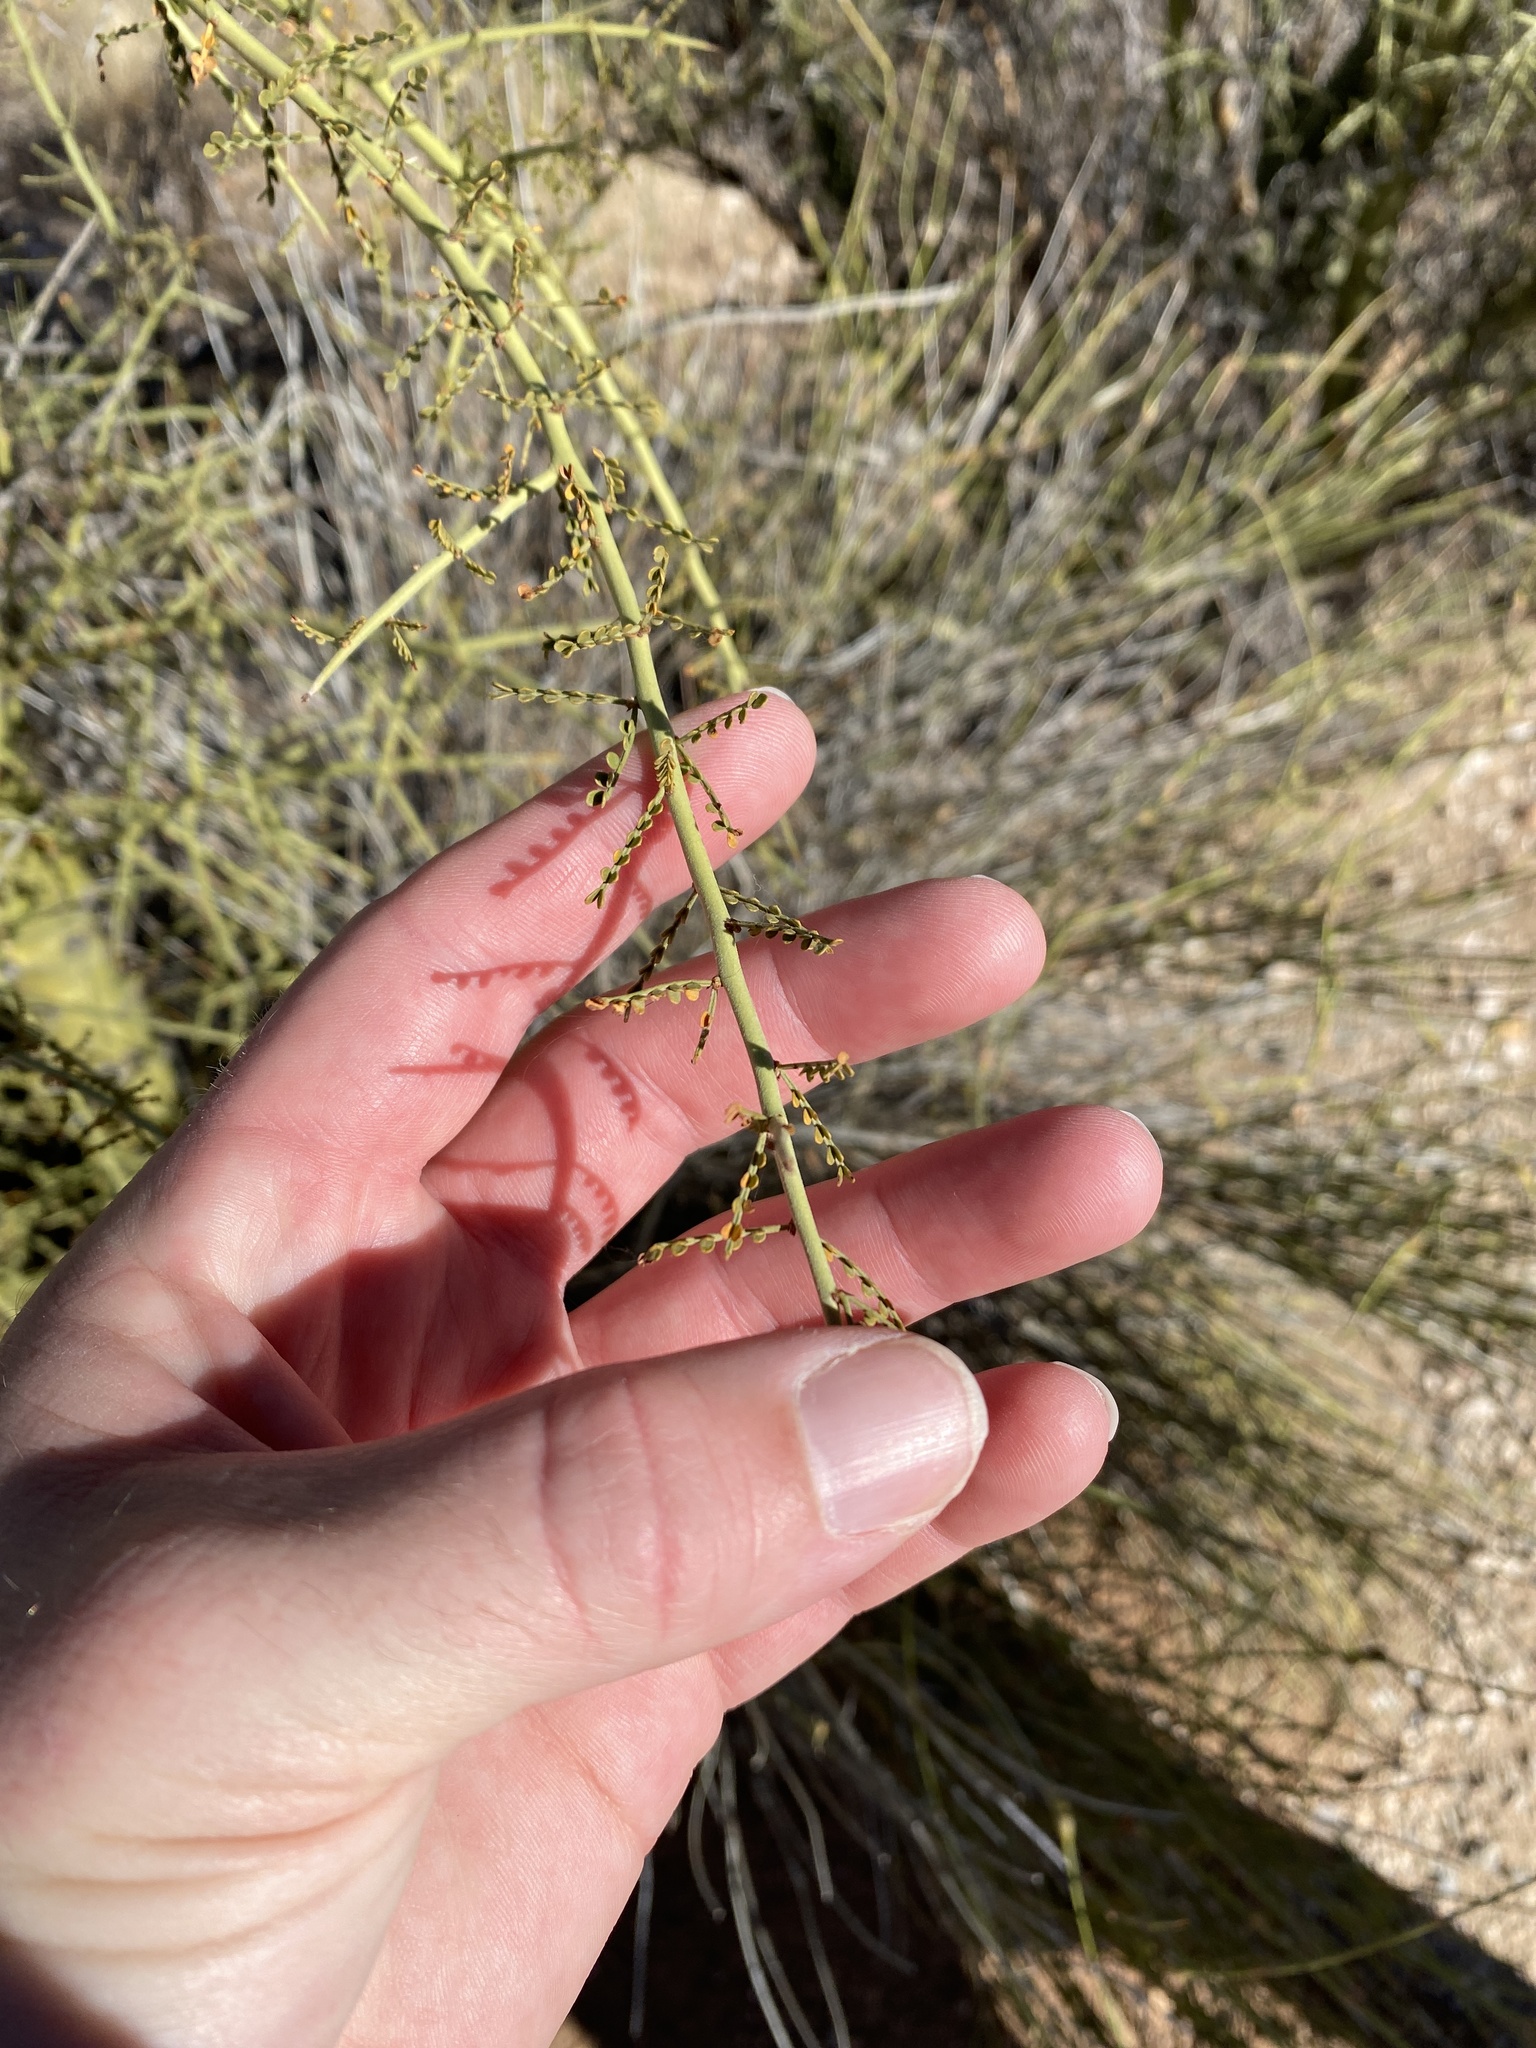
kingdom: Plantae
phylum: Tracheophyta
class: Magnoliopsida
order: Fabales
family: Fabaceae
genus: Parkinsonia
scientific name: Parkinsonia microphylla
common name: Yellow paloverde
